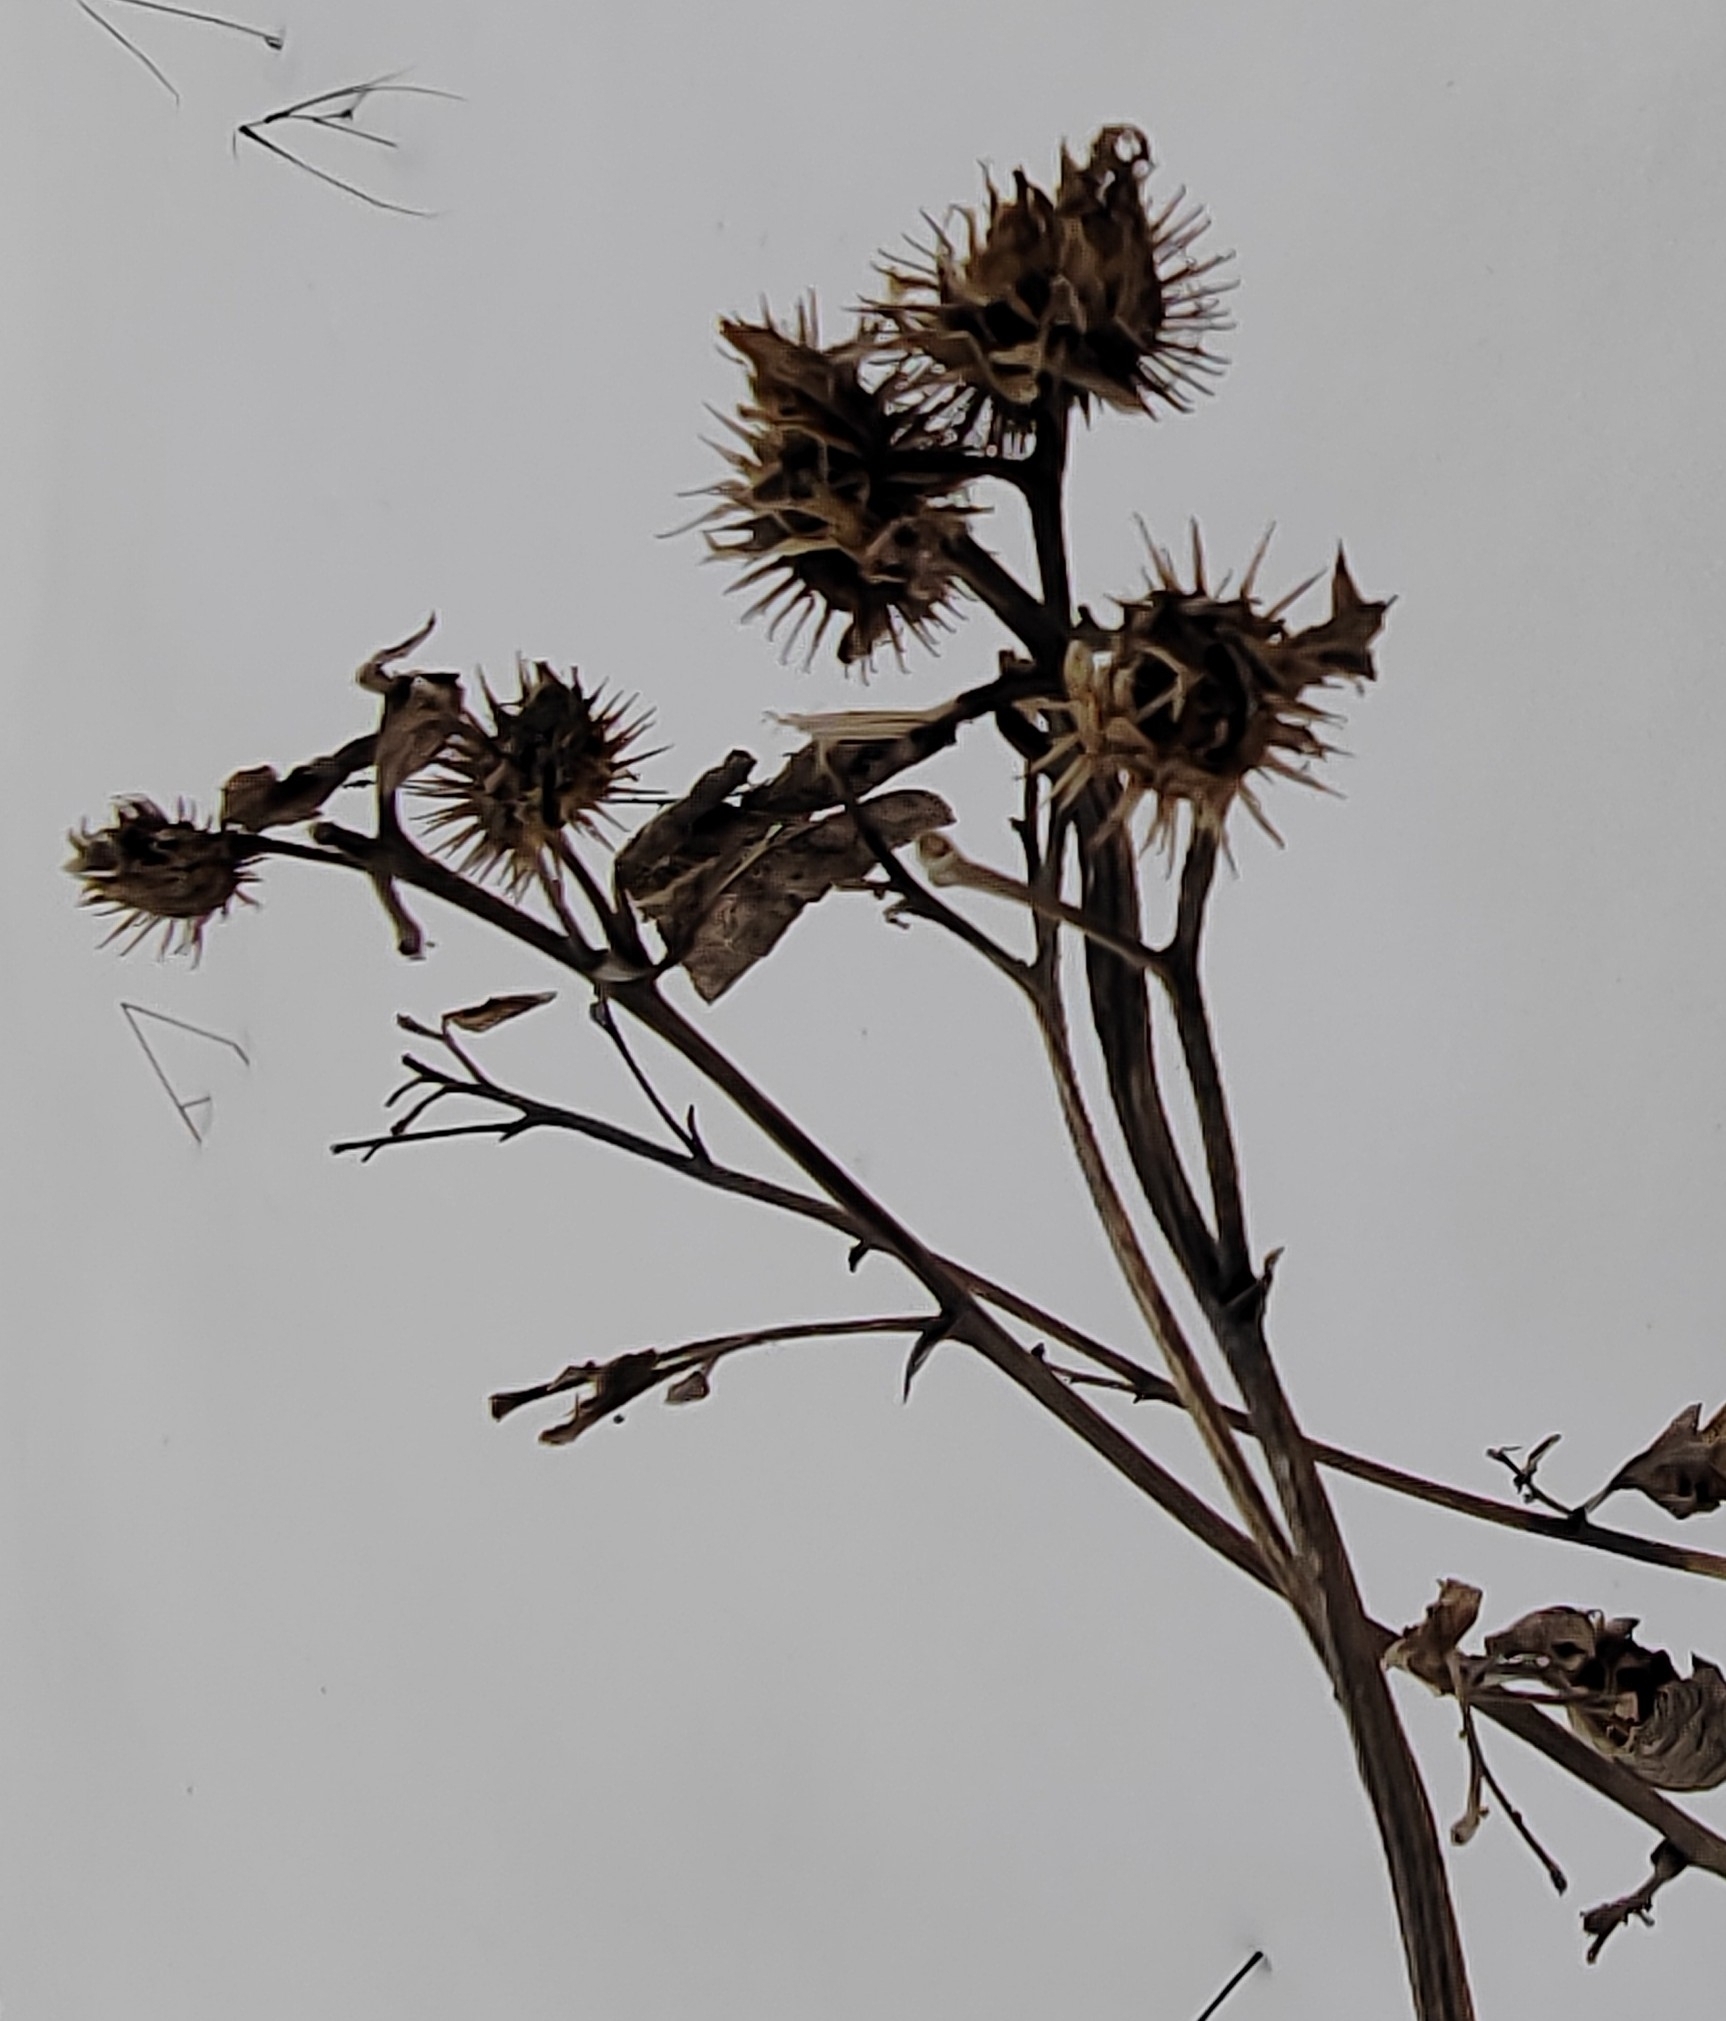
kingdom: Plantae
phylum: Tracheophyta
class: Magnoliopsida
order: Asterales
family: Asteraceae
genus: Arctium
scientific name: Arctium tomentosum
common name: Woolly burdock
